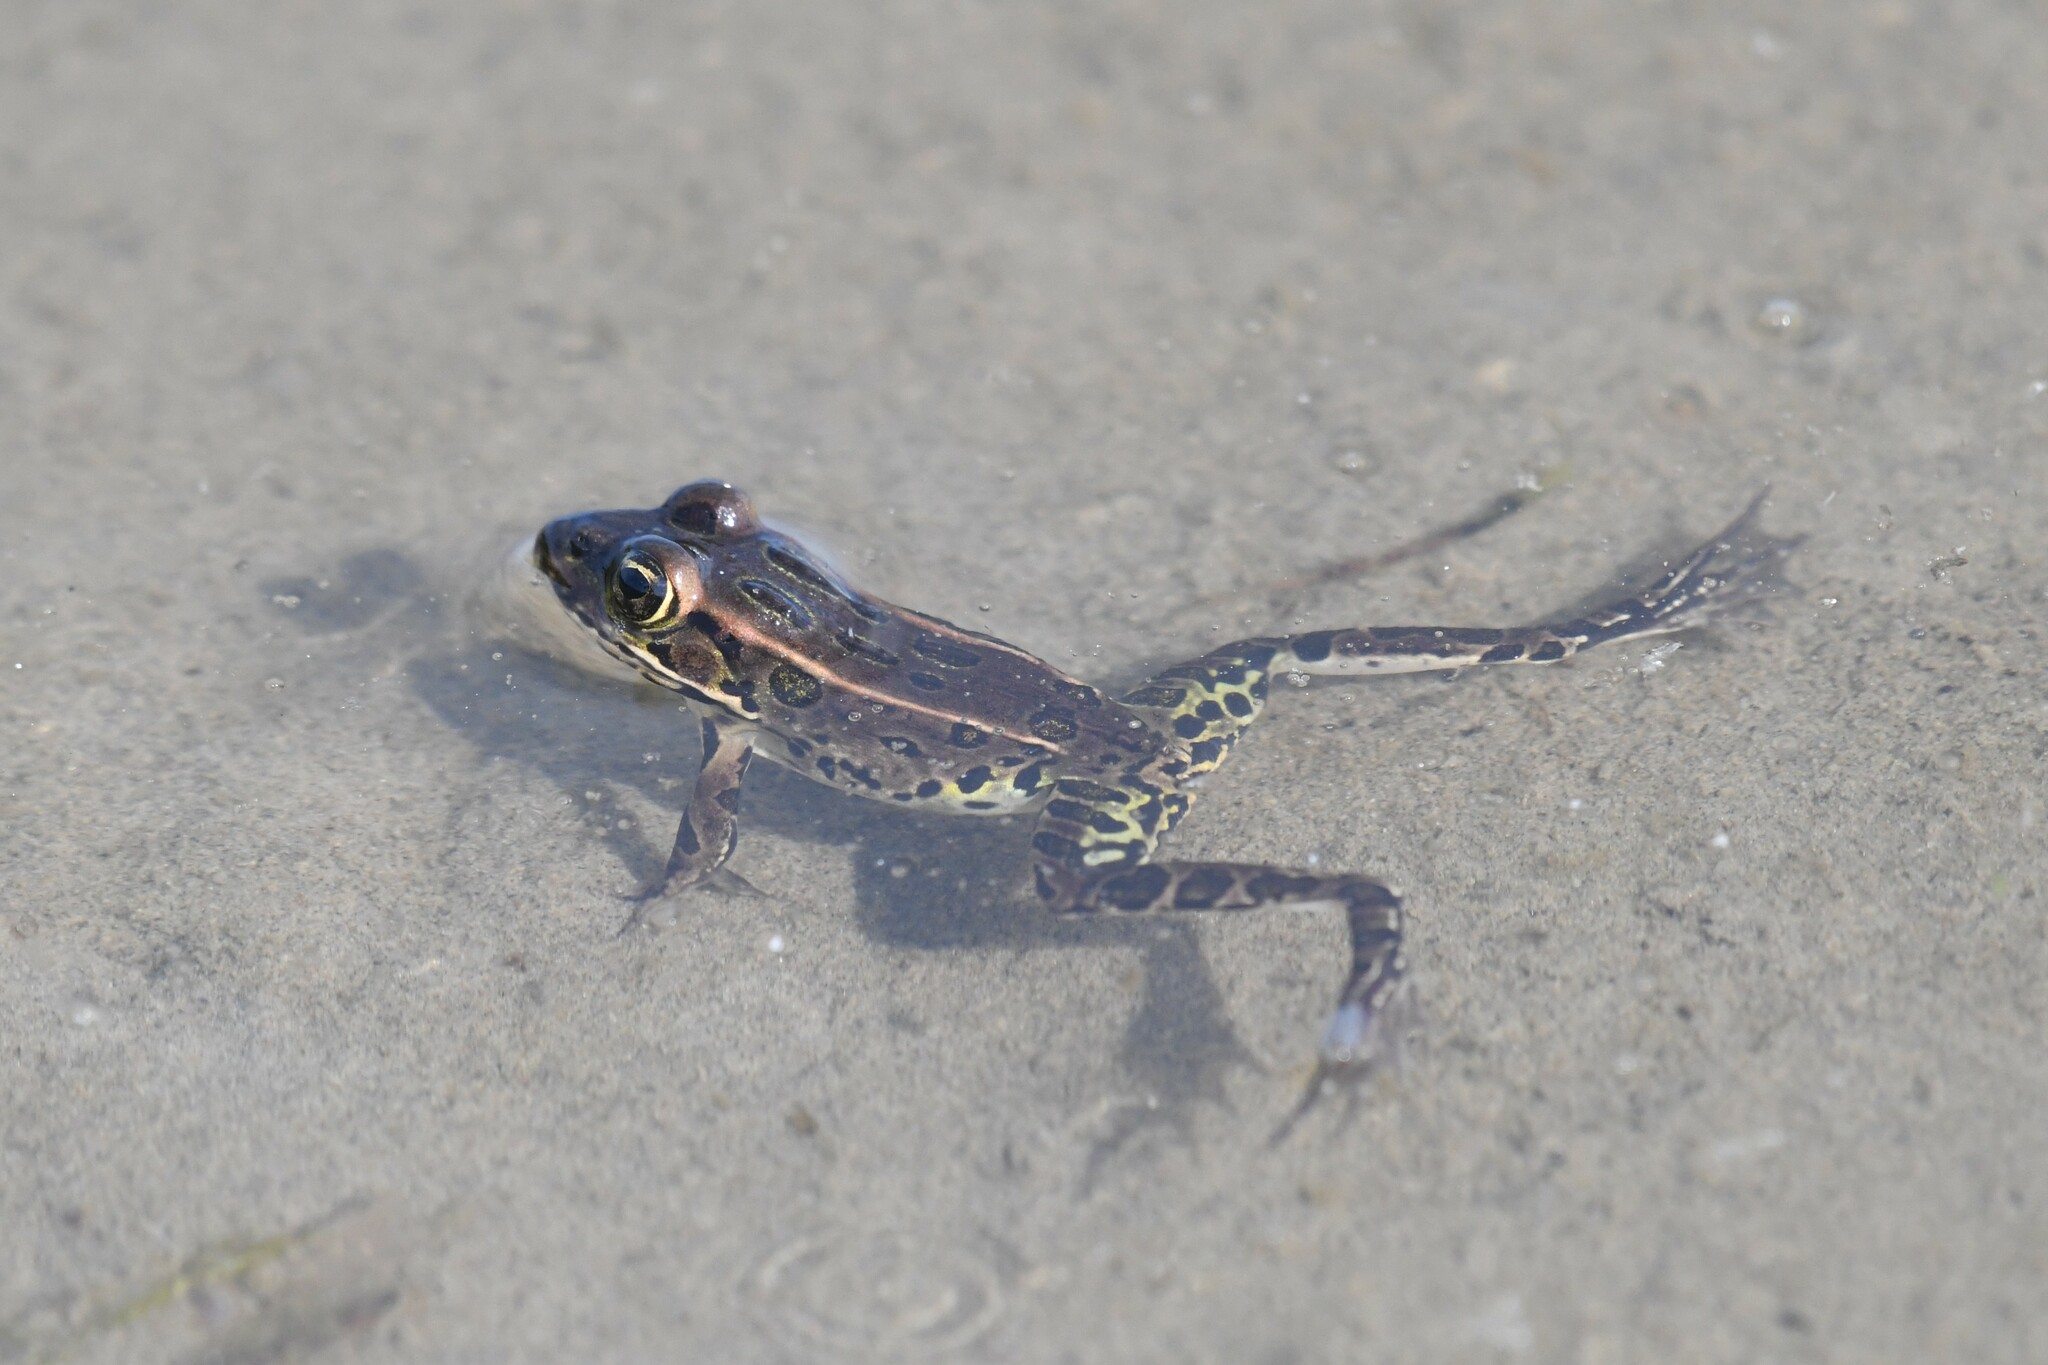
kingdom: Animalia
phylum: Chordata
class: Amphibia
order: Anura
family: Ranidae
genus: Lithobates
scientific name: Lithobates pipiens
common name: Northern leopard frog
